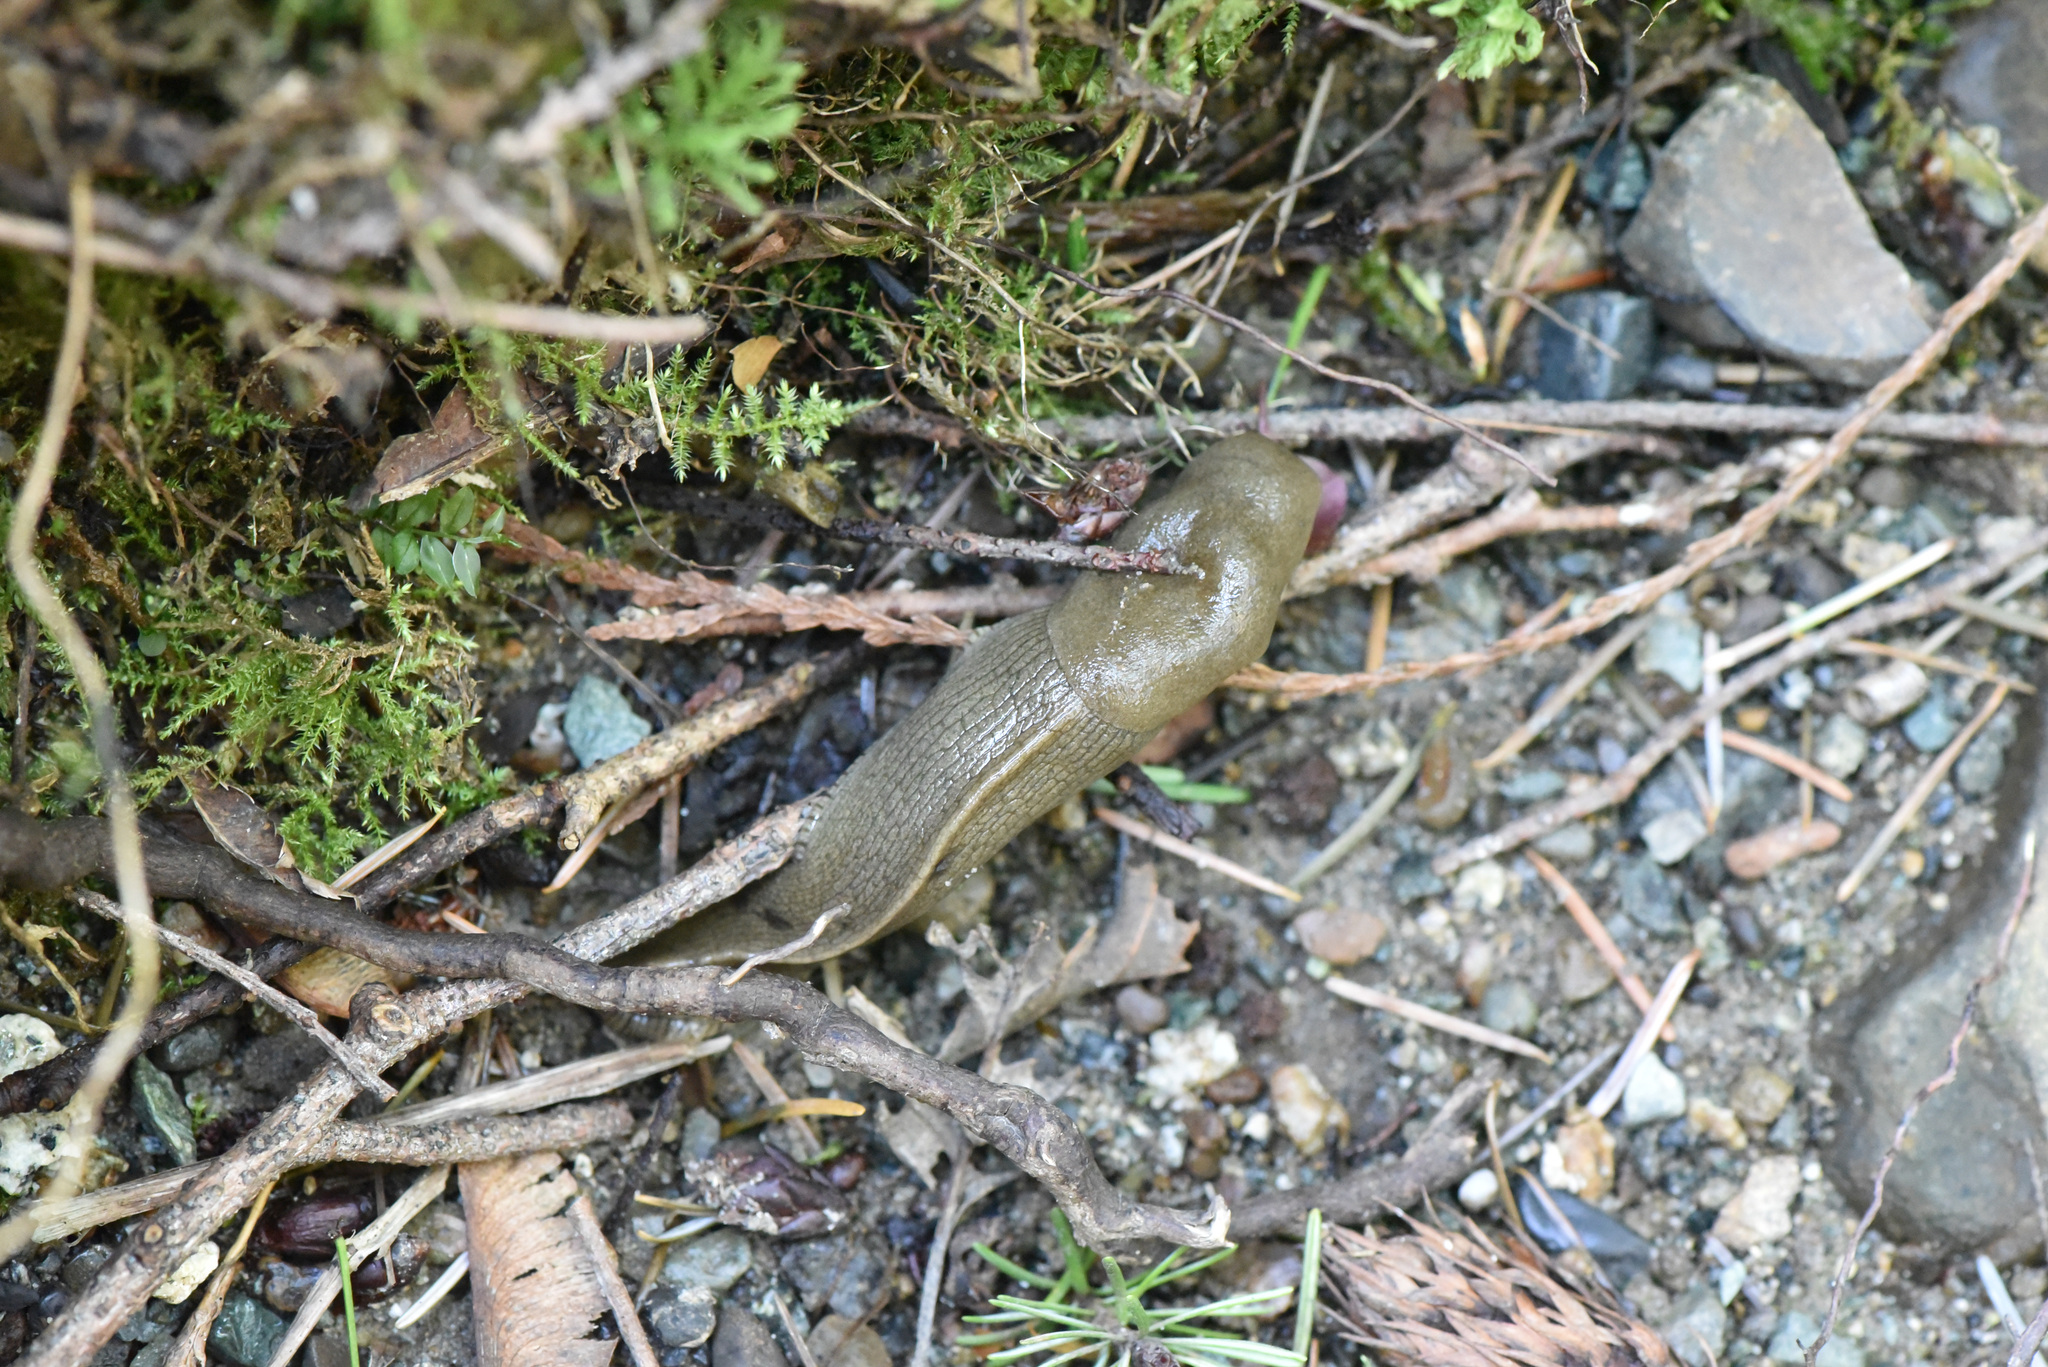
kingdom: Animalia
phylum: Mollusca
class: Gastropoda
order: Stylommatophora
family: Ariolimacidae
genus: Ariolimax
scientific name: Ariolimax columbianus
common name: Pacific banana slug
